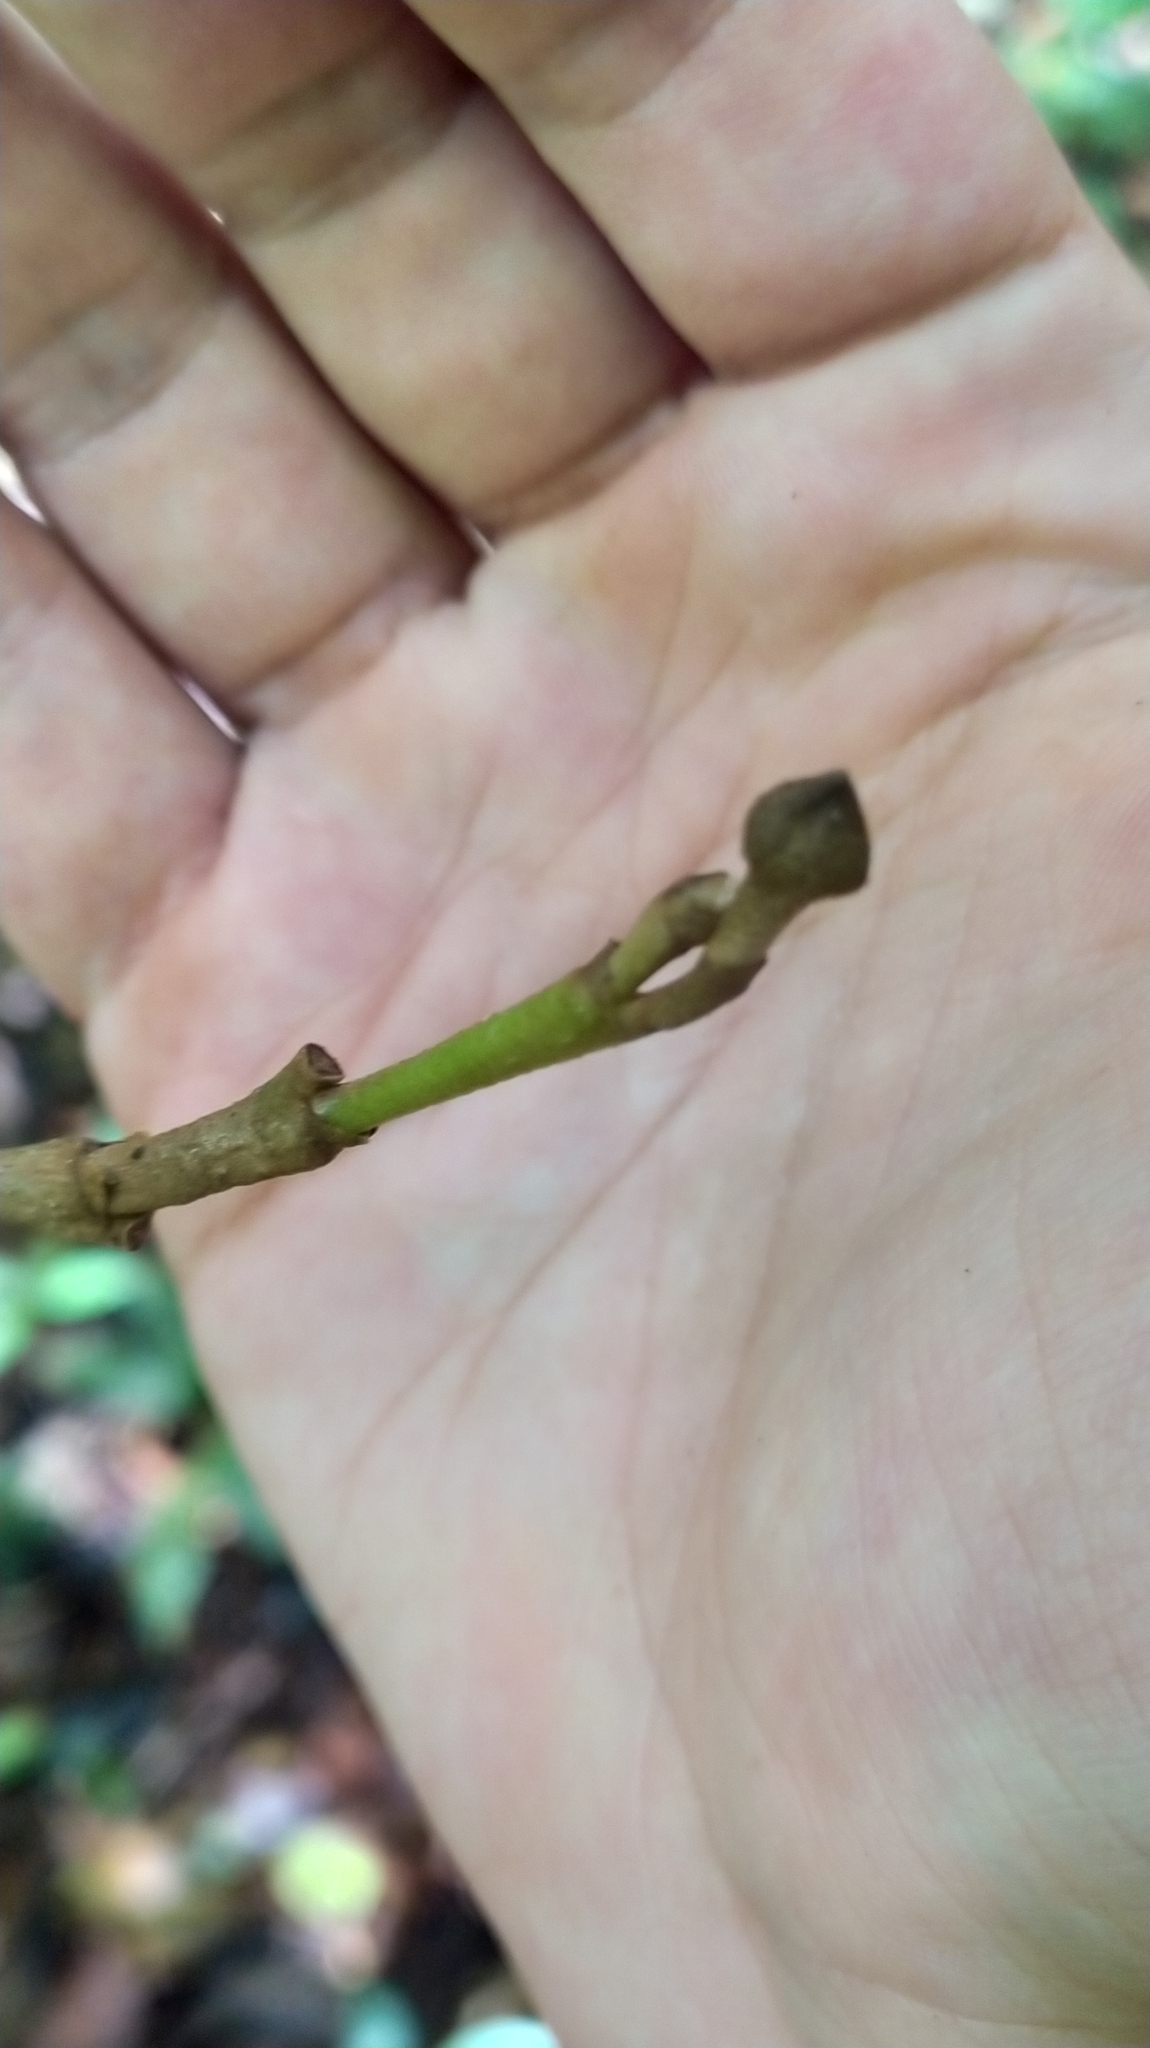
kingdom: Plantae
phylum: Tracheophyta
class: Magnoliopsida
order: Magnoliales
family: Annonaceae
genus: Duguetia
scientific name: Duguetia cadaverica
